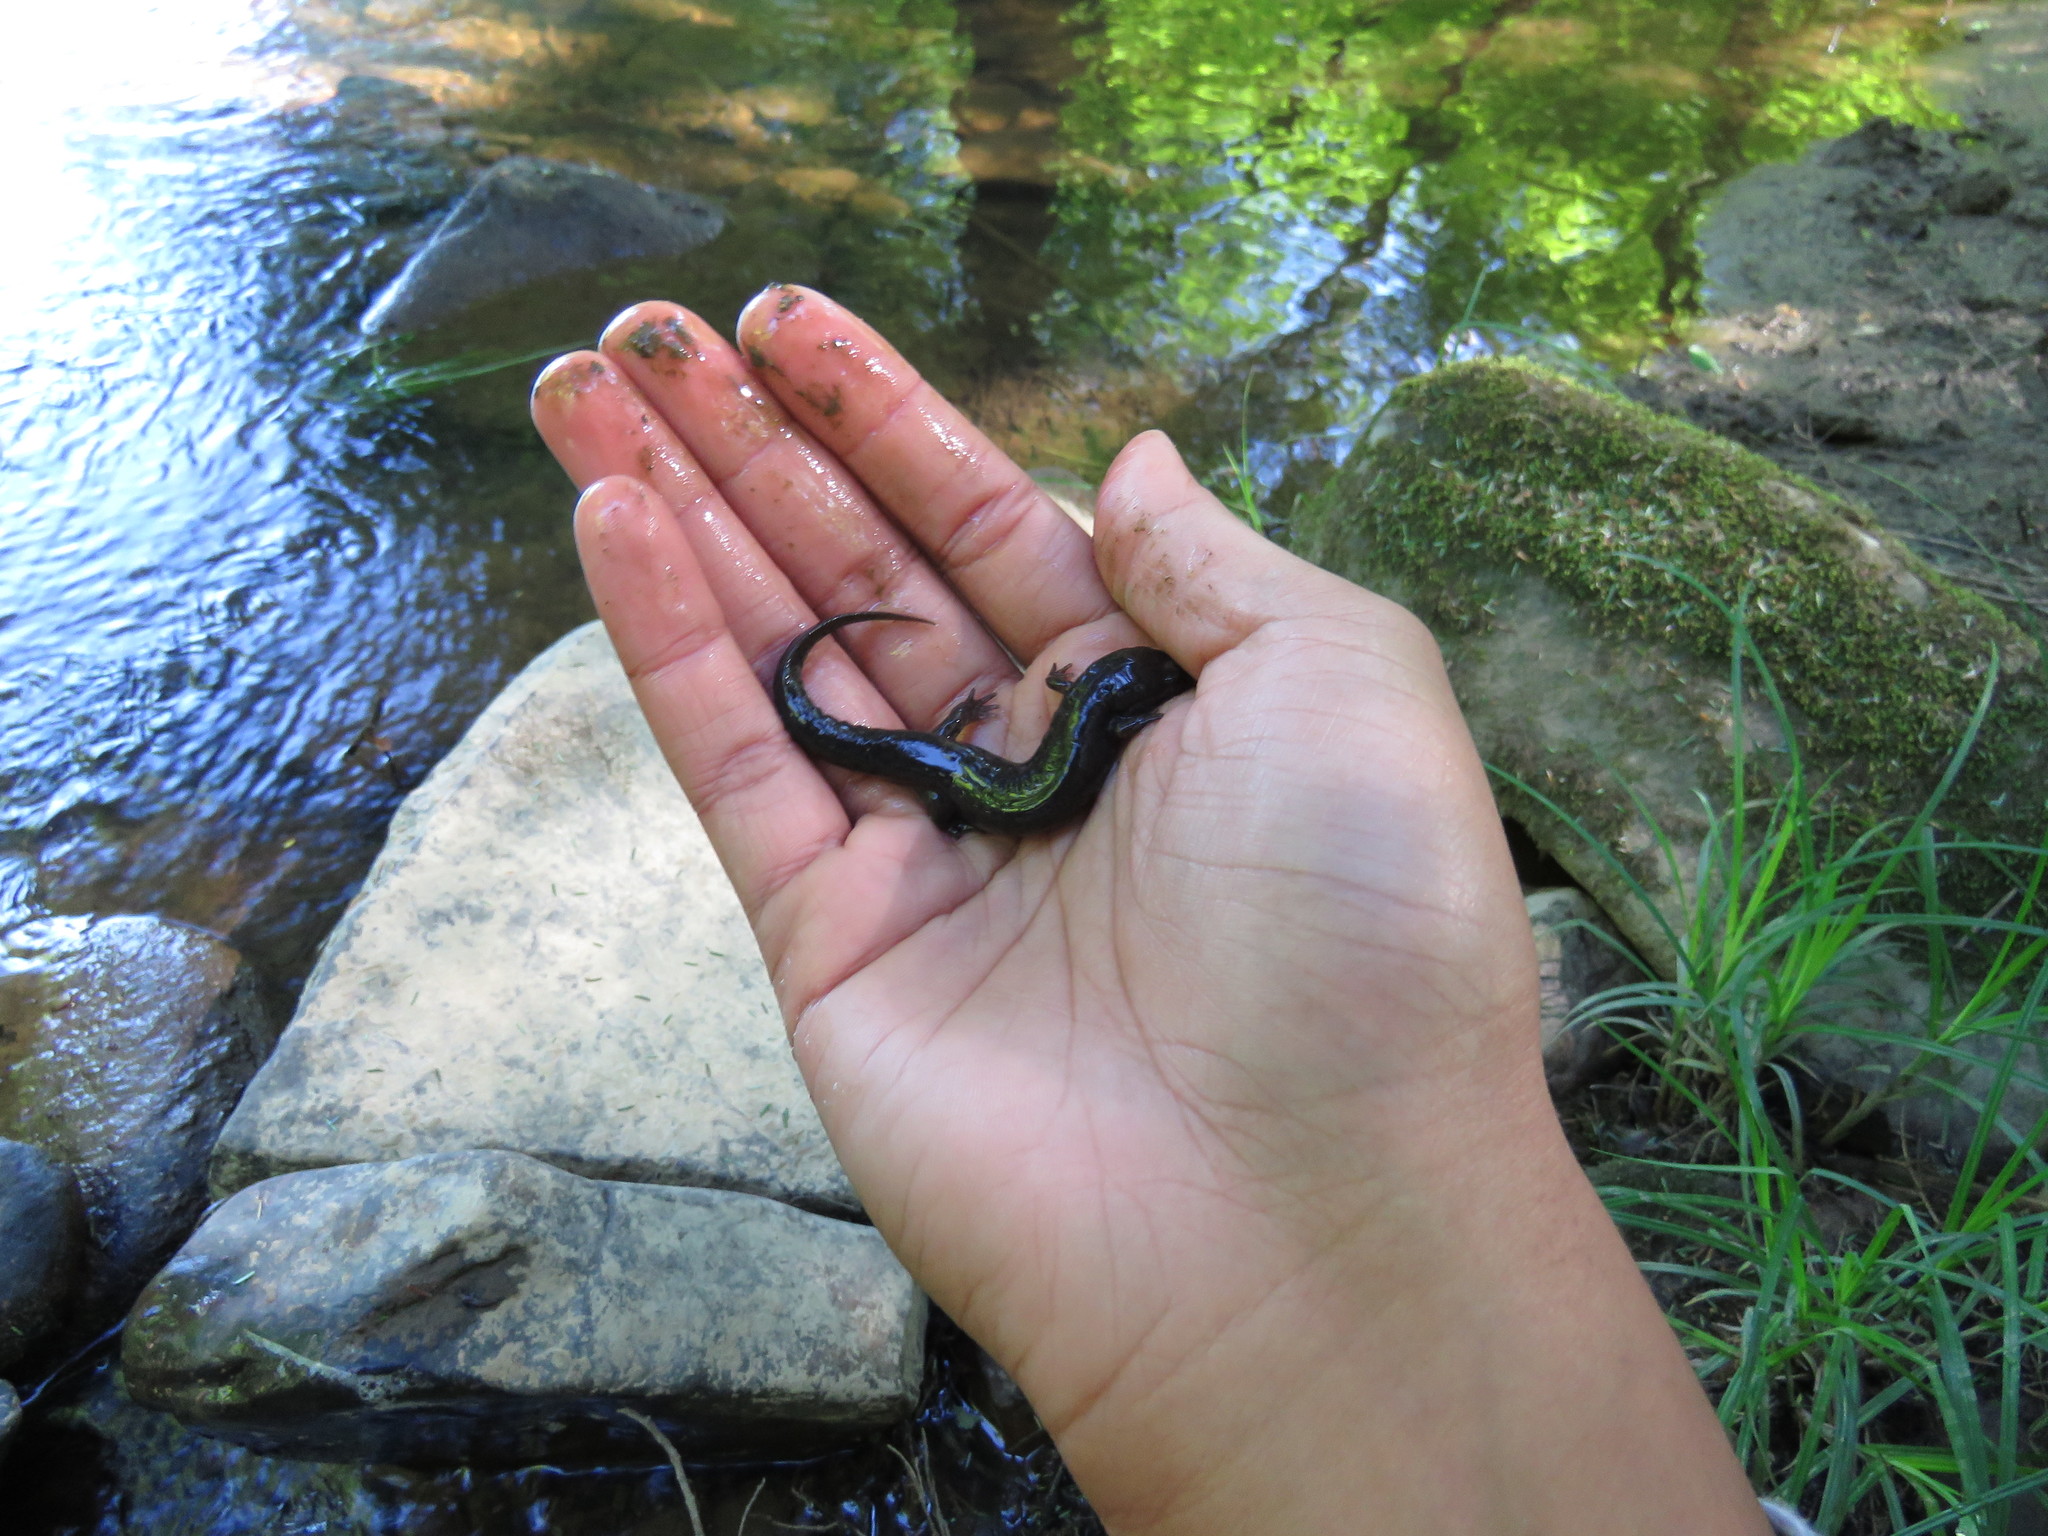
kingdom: Animalia
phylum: Chordata
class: Amphibia
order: Caudata
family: Plethodontidae
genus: Desmognathus
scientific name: Desmognathus fuscus
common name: Northern dusky salamander
